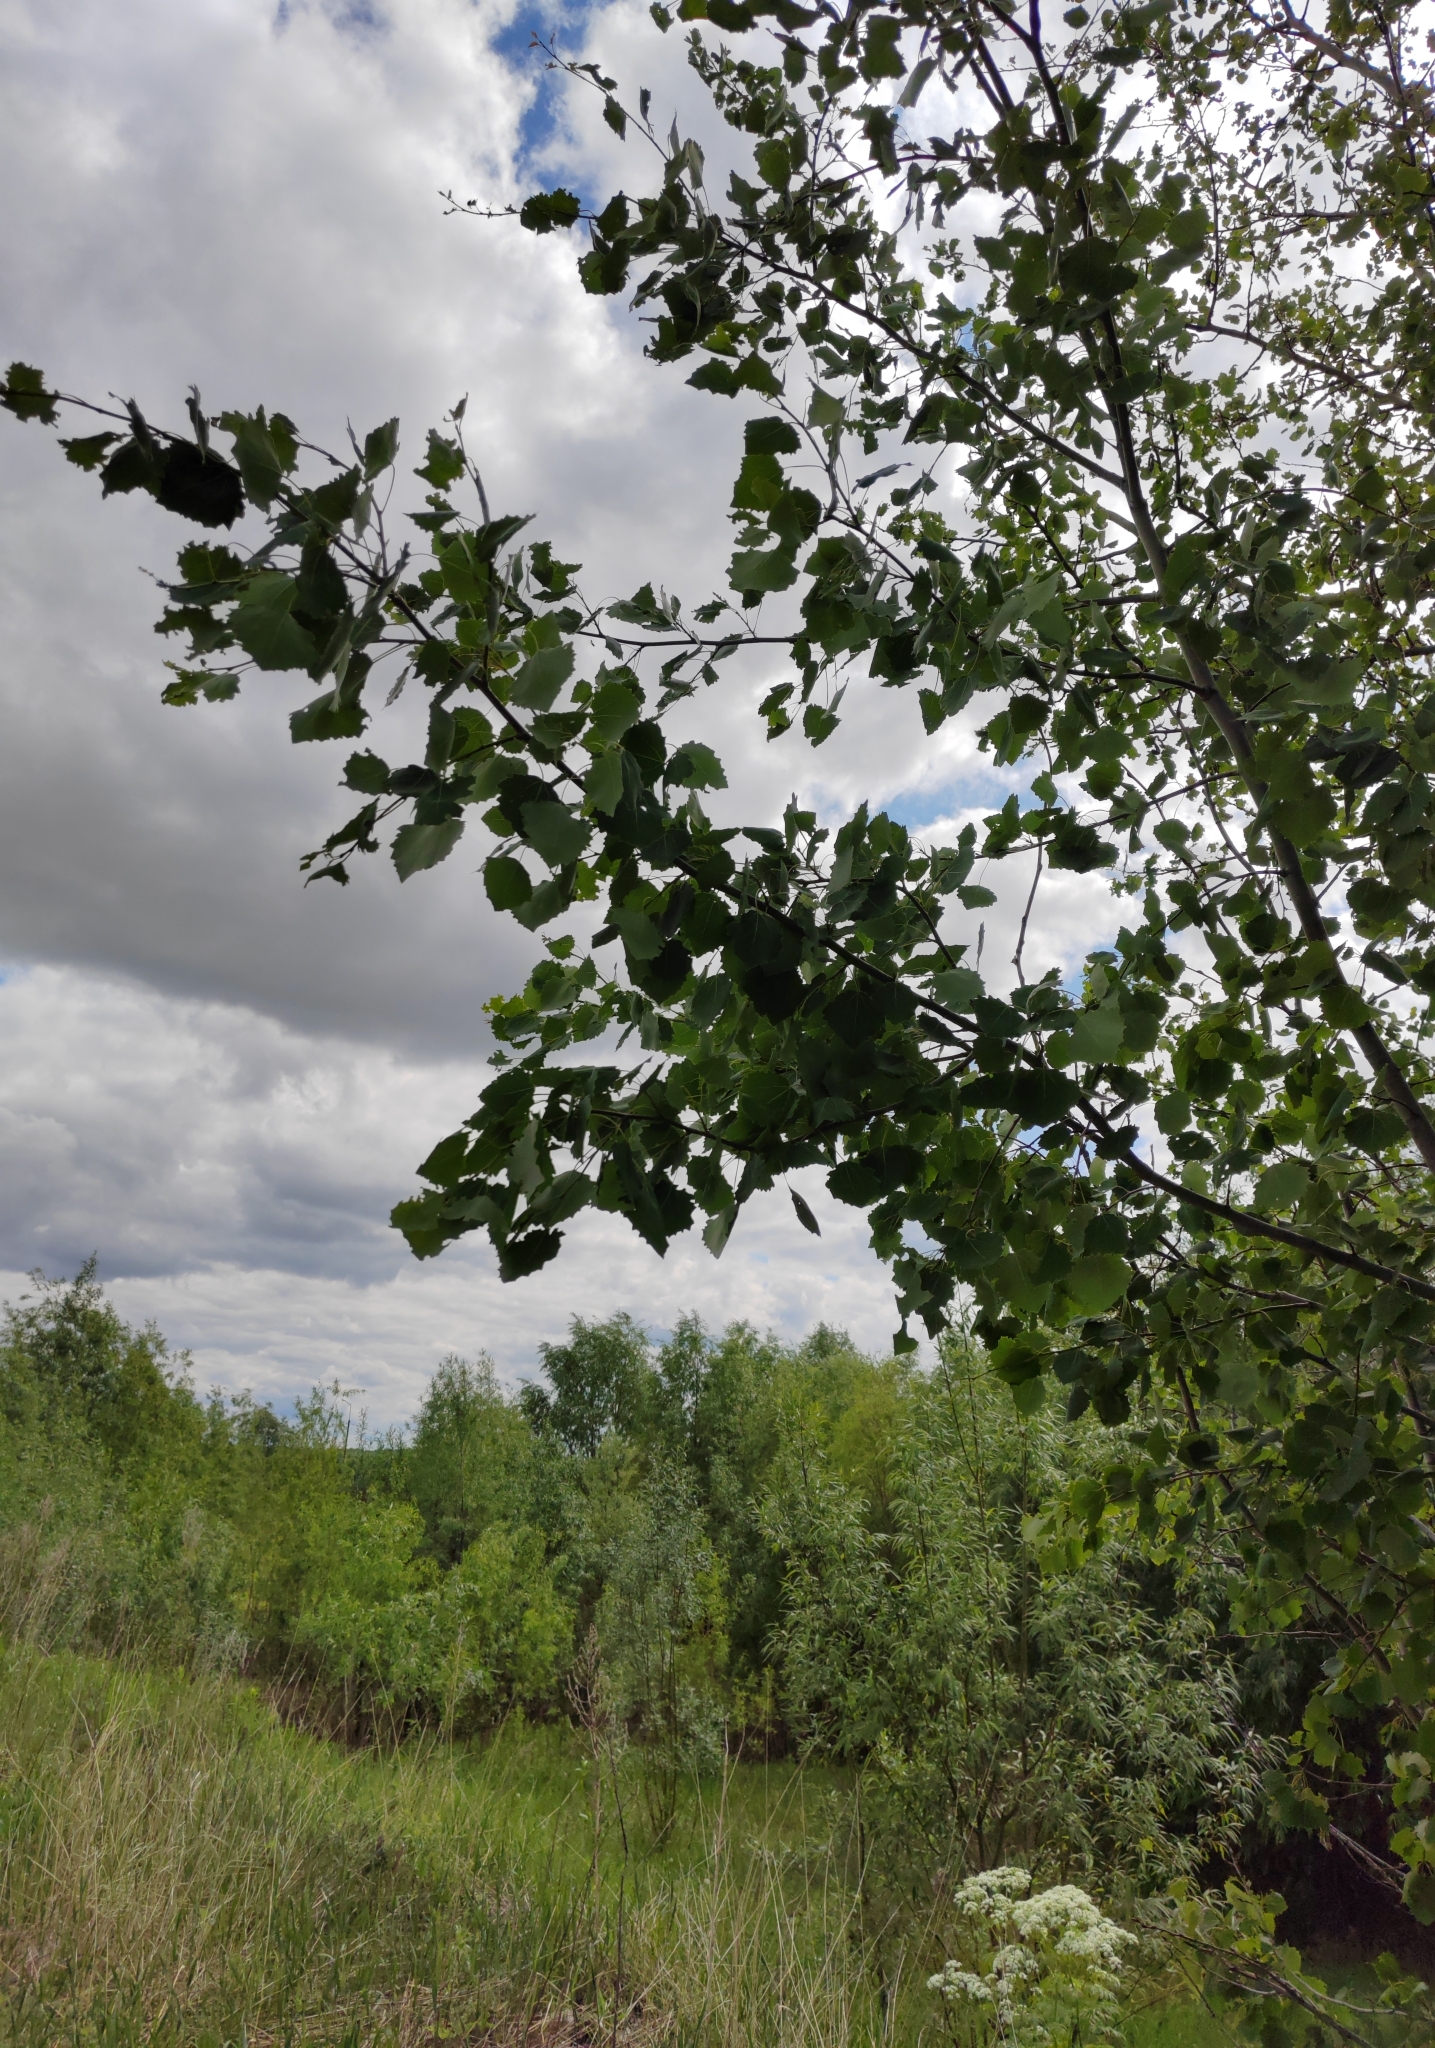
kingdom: Plantae
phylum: Tracheophyta
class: Magnoliopsida
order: Malpighiales
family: Salicaceae
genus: Populus
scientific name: Populus tremula
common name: European aspen
